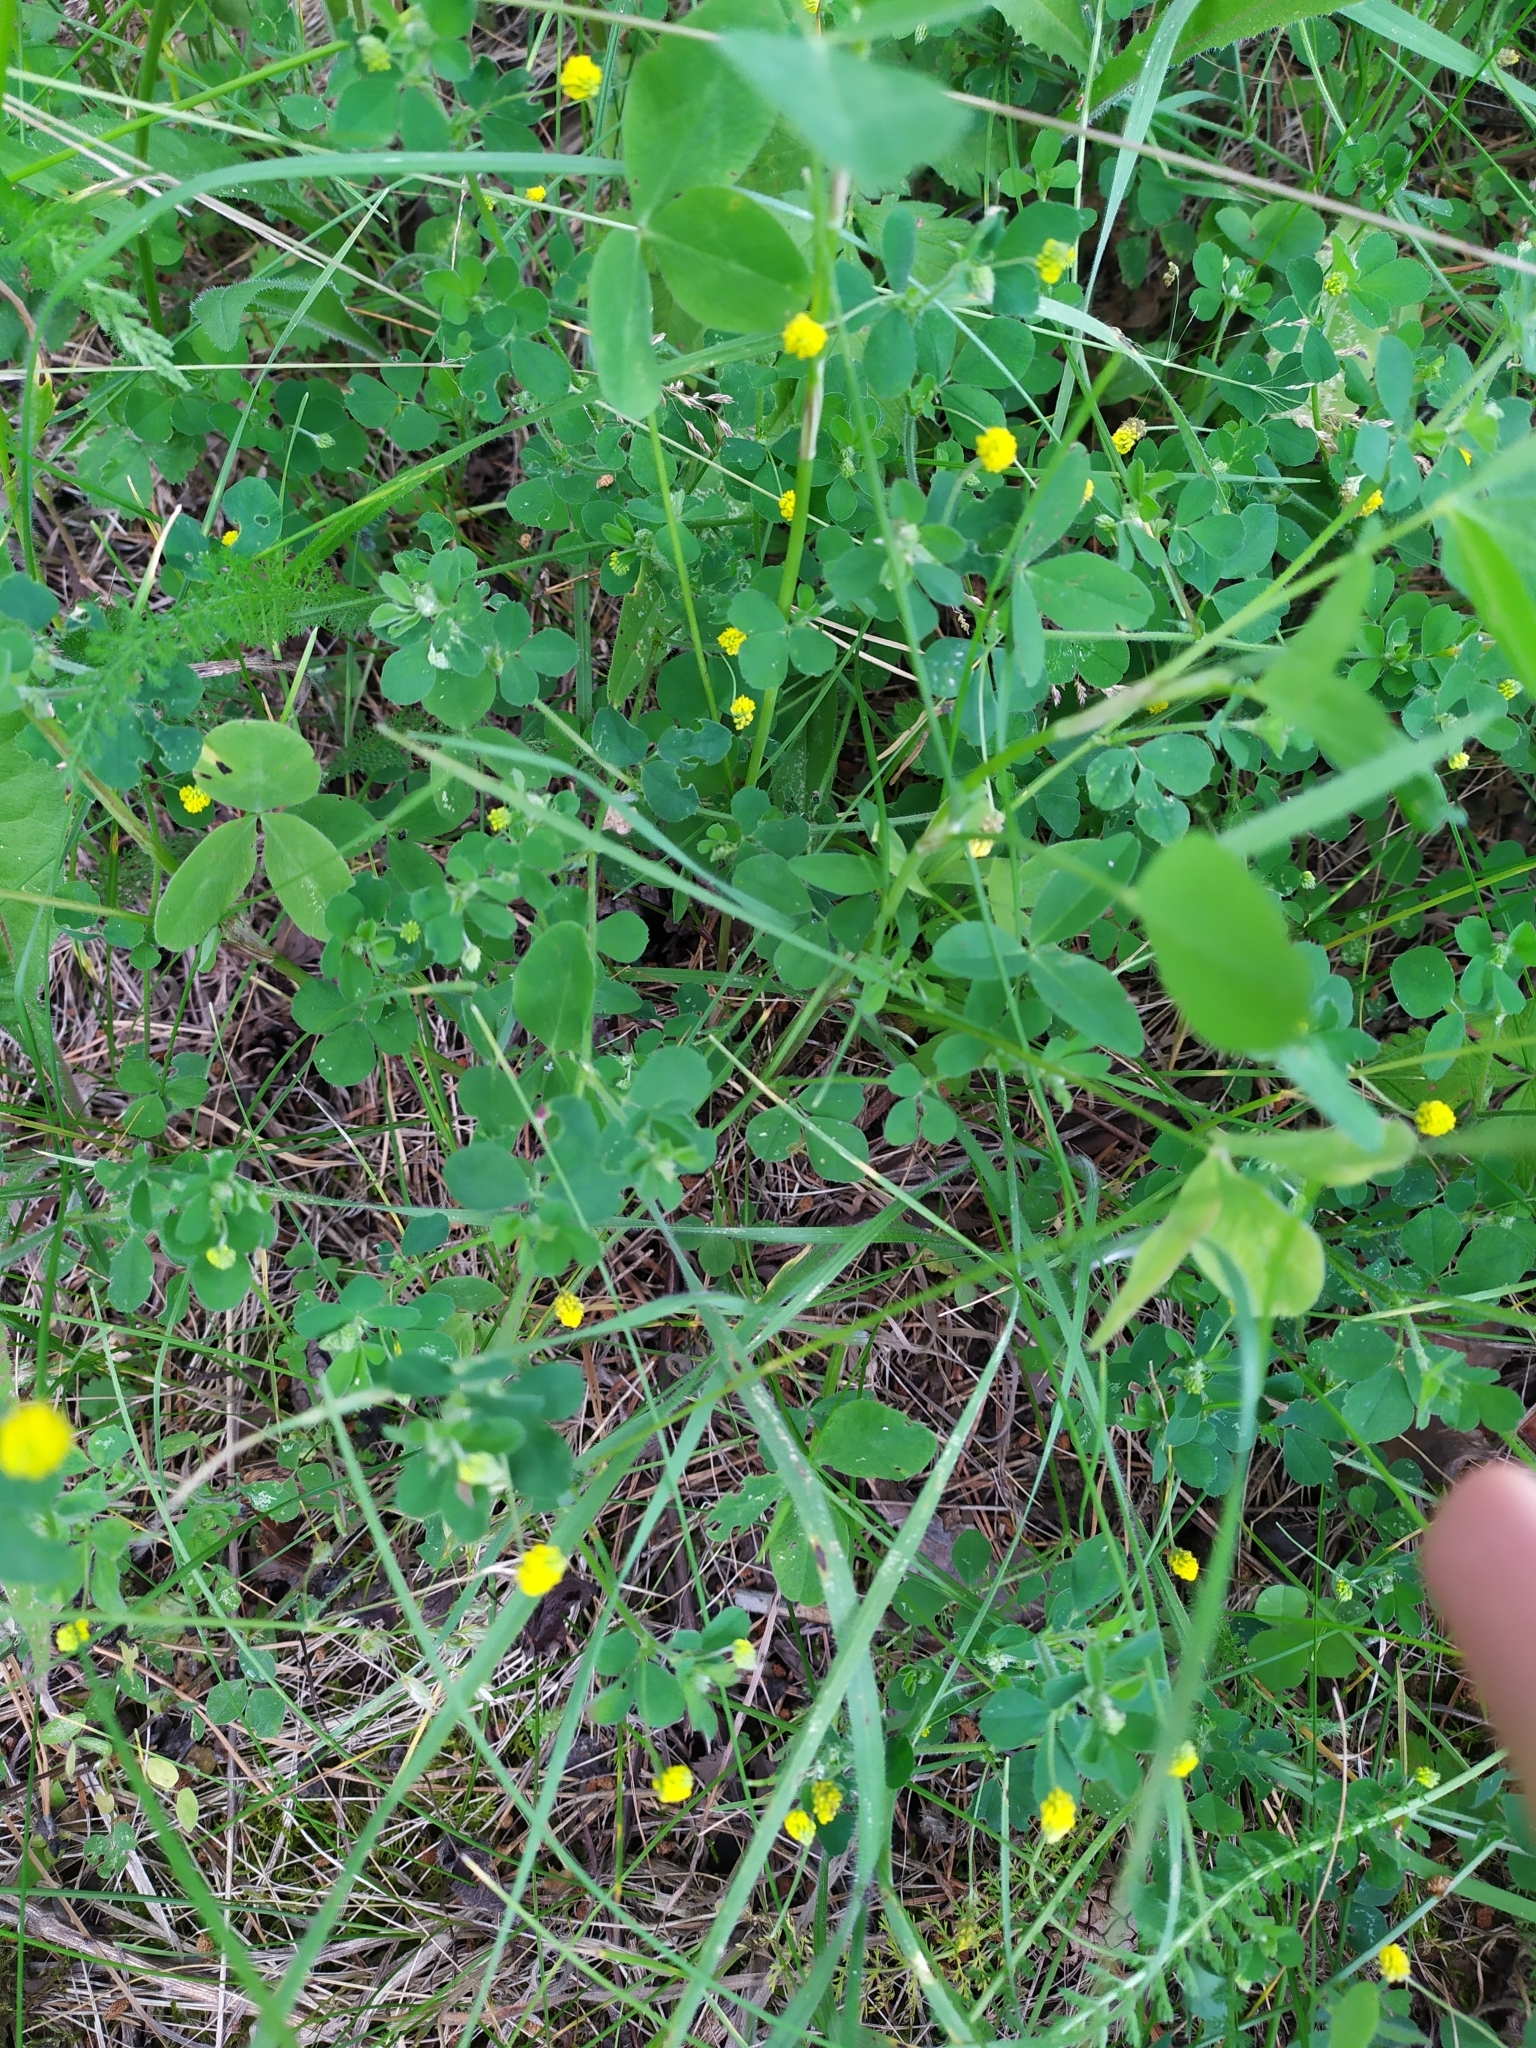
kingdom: Plantae
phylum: Tracheophyta
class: Magnoliopsida
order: Fabales
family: Fabaceae
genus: Medicago
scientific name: Medicago lupulina
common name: Black medick
